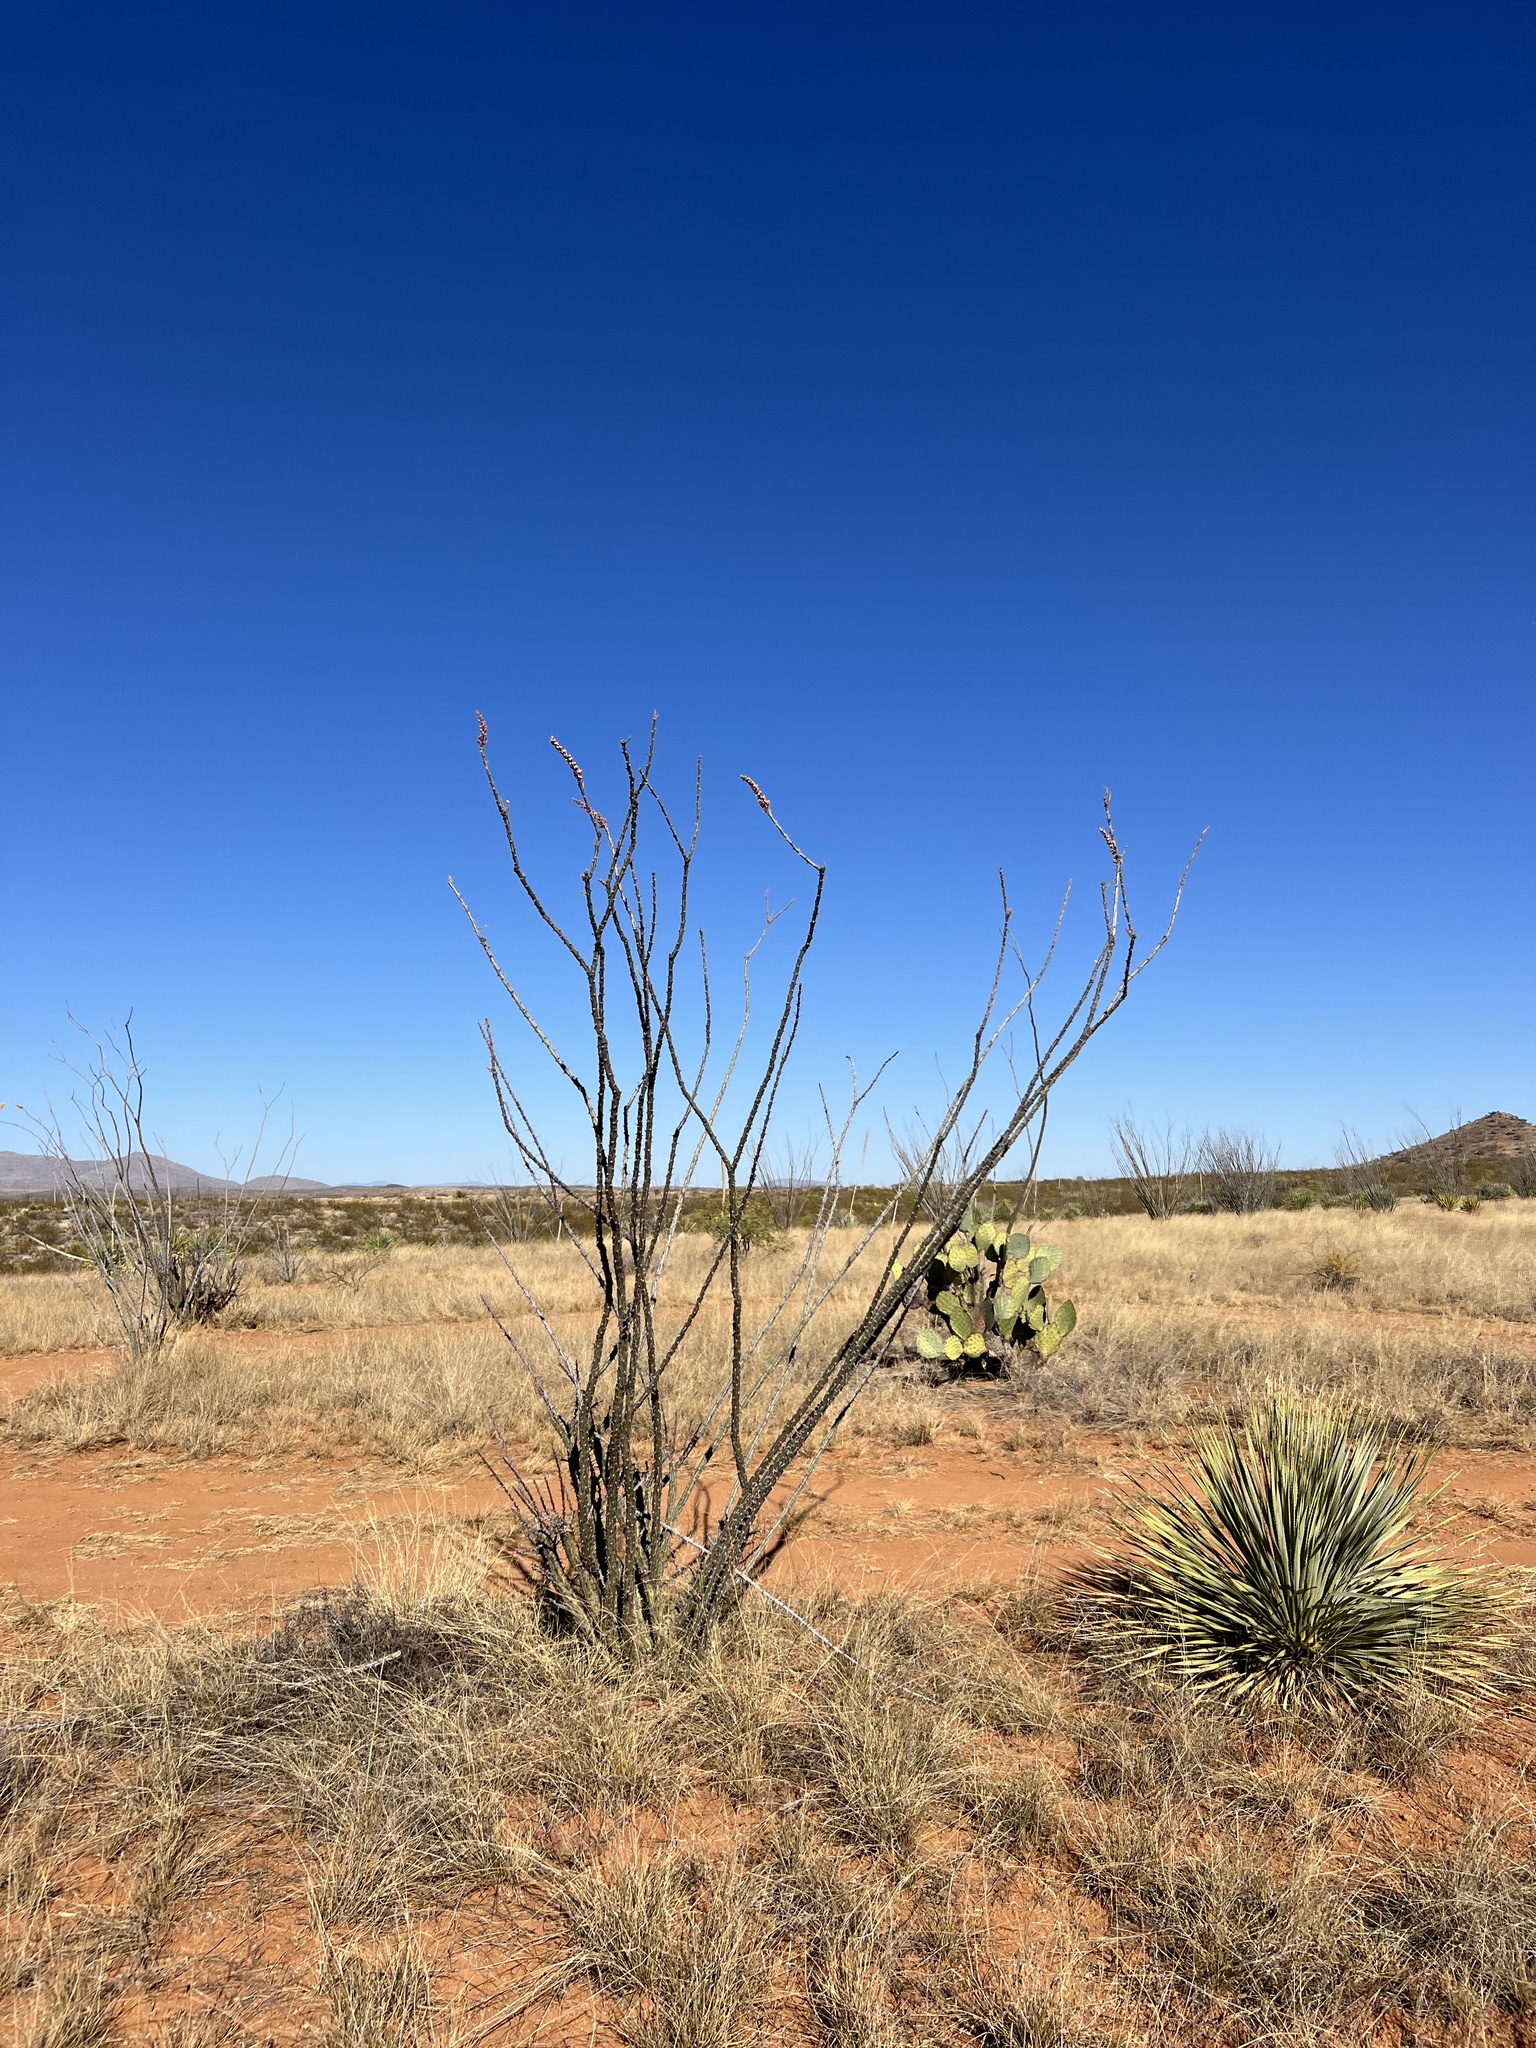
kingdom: Plantae
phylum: Tracheophyta
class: Magnoliopsida
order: Ericales
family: Fouquieriaceae
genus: Fouquieria
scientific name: Fouquieria splendens
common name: Vine-cactus
